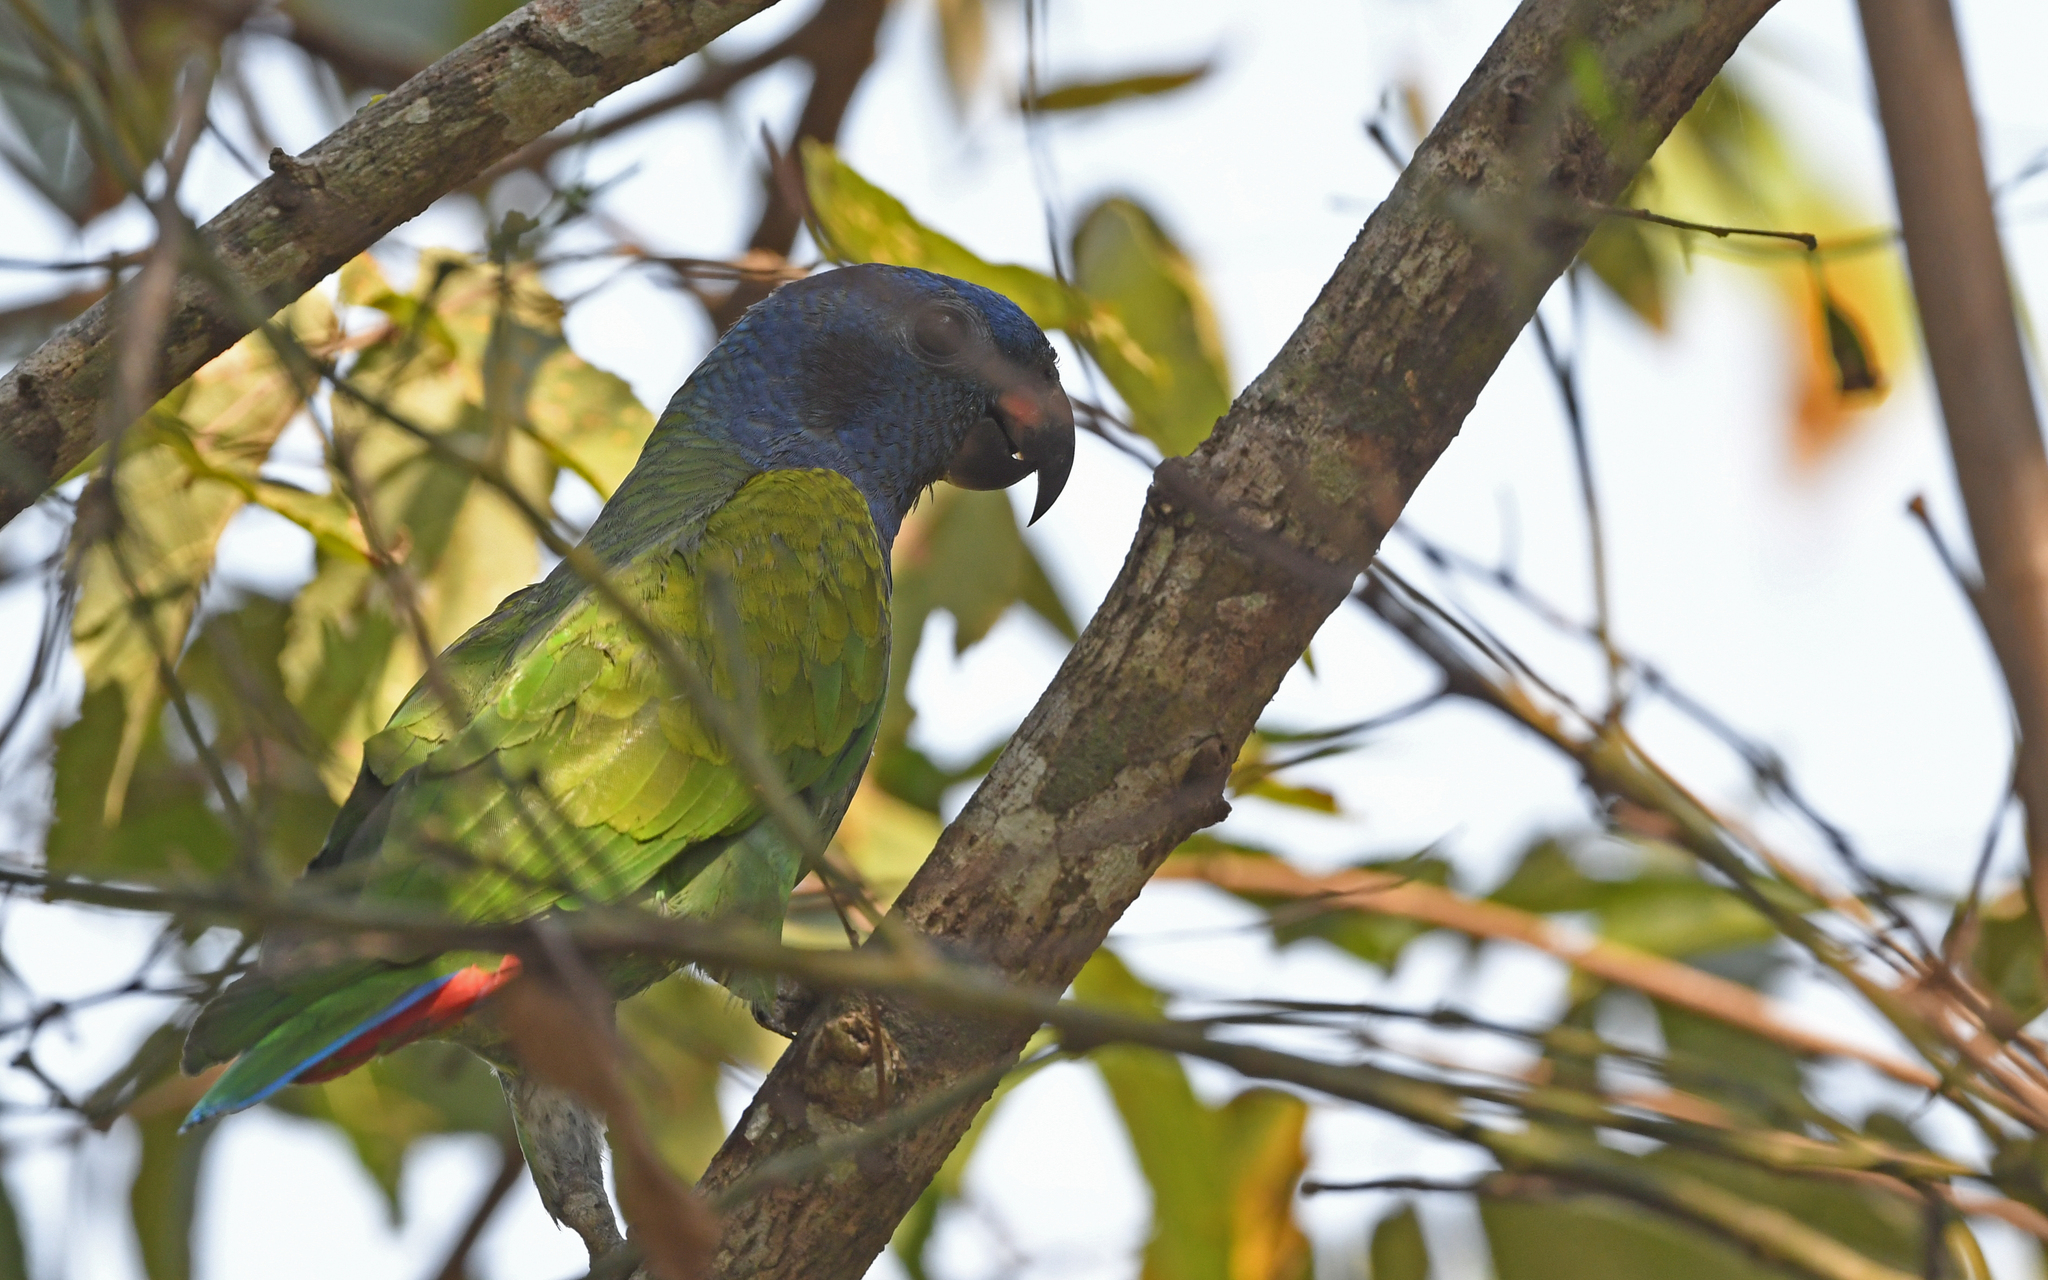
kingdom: Animalia
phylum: Chordata
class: Aves
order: Psittaciformes
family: Psittacidae
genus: Pionus
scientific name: Pionus menstruus
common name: Blue-headed parrot
